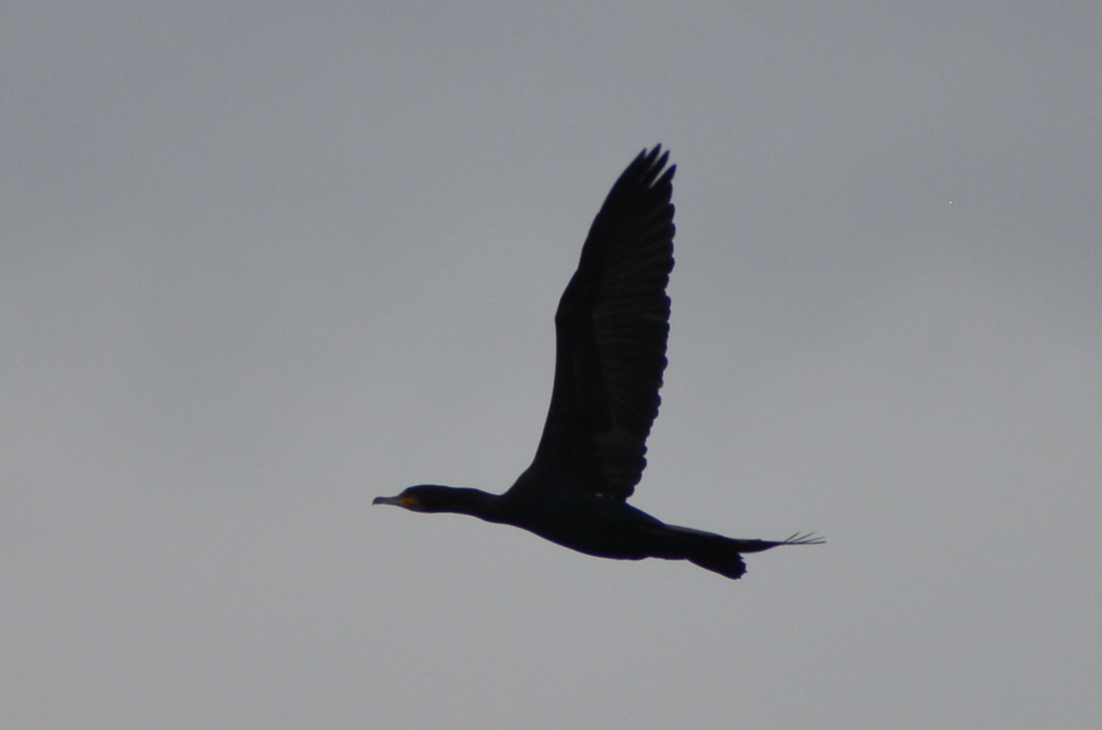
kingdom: Animalia
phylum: Chordata
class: Aves
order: Suliformes
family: Phalacrocoracidae
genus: Phalacrocorax
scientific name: Phalacrocorax carbo
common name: Great cormorant
